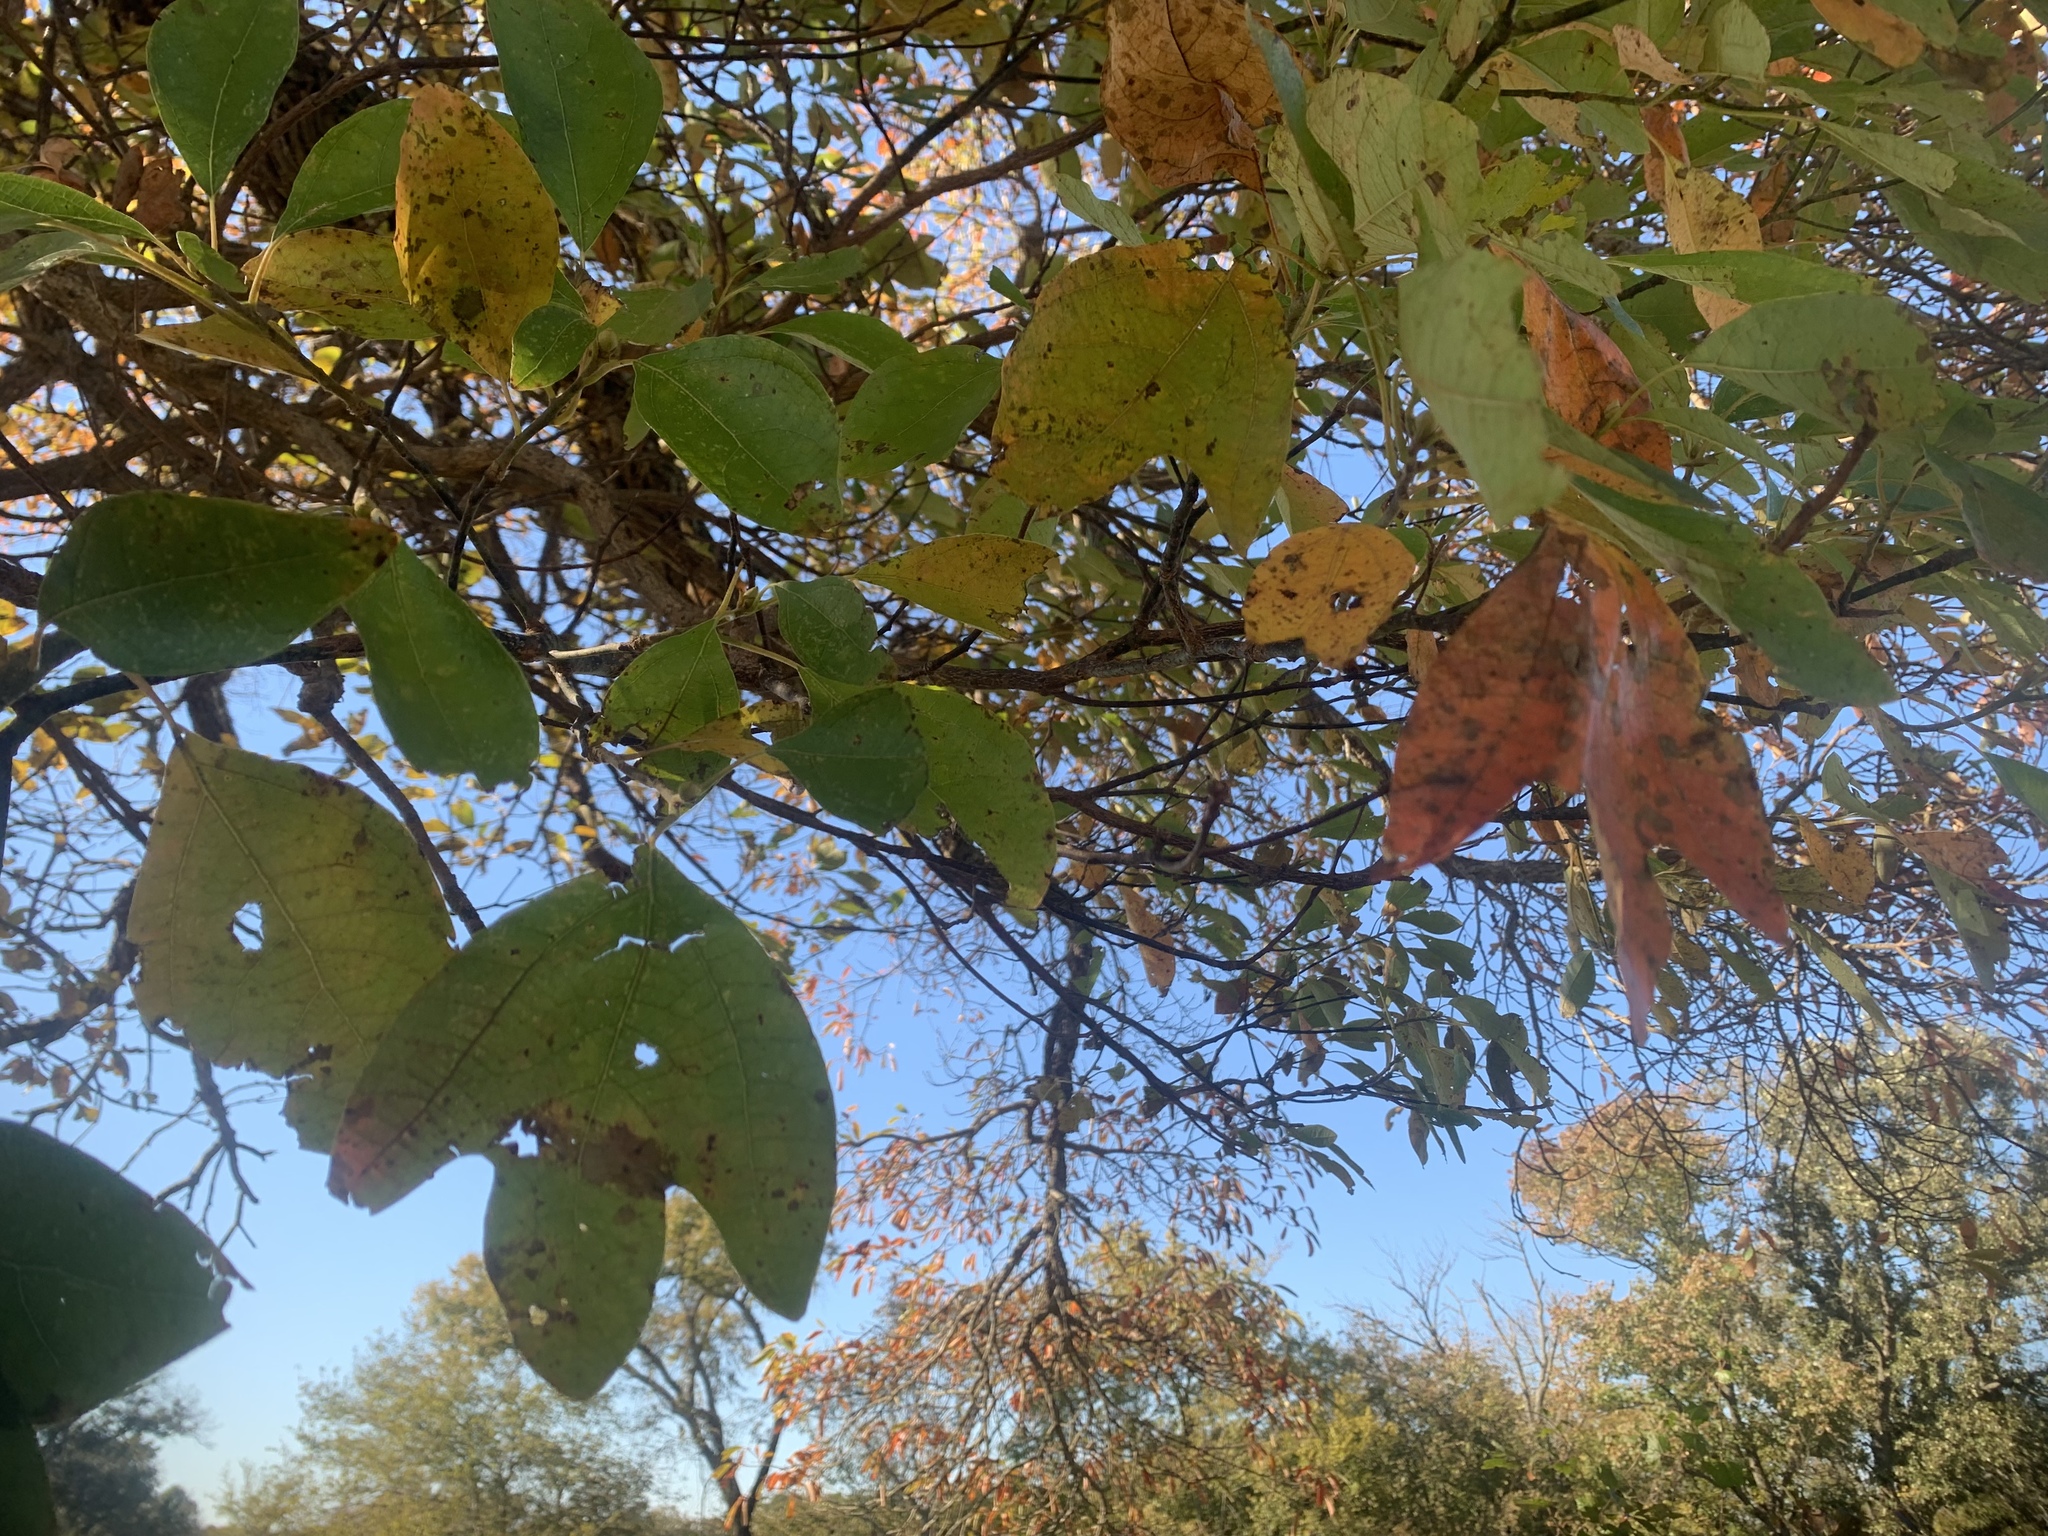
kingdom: Plantae
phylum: Tracheophyta
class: Magnoliopsida
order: Laurales
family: Lauraceae
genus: Sassafras
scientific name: Sassafras albidum
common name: Sassafras
